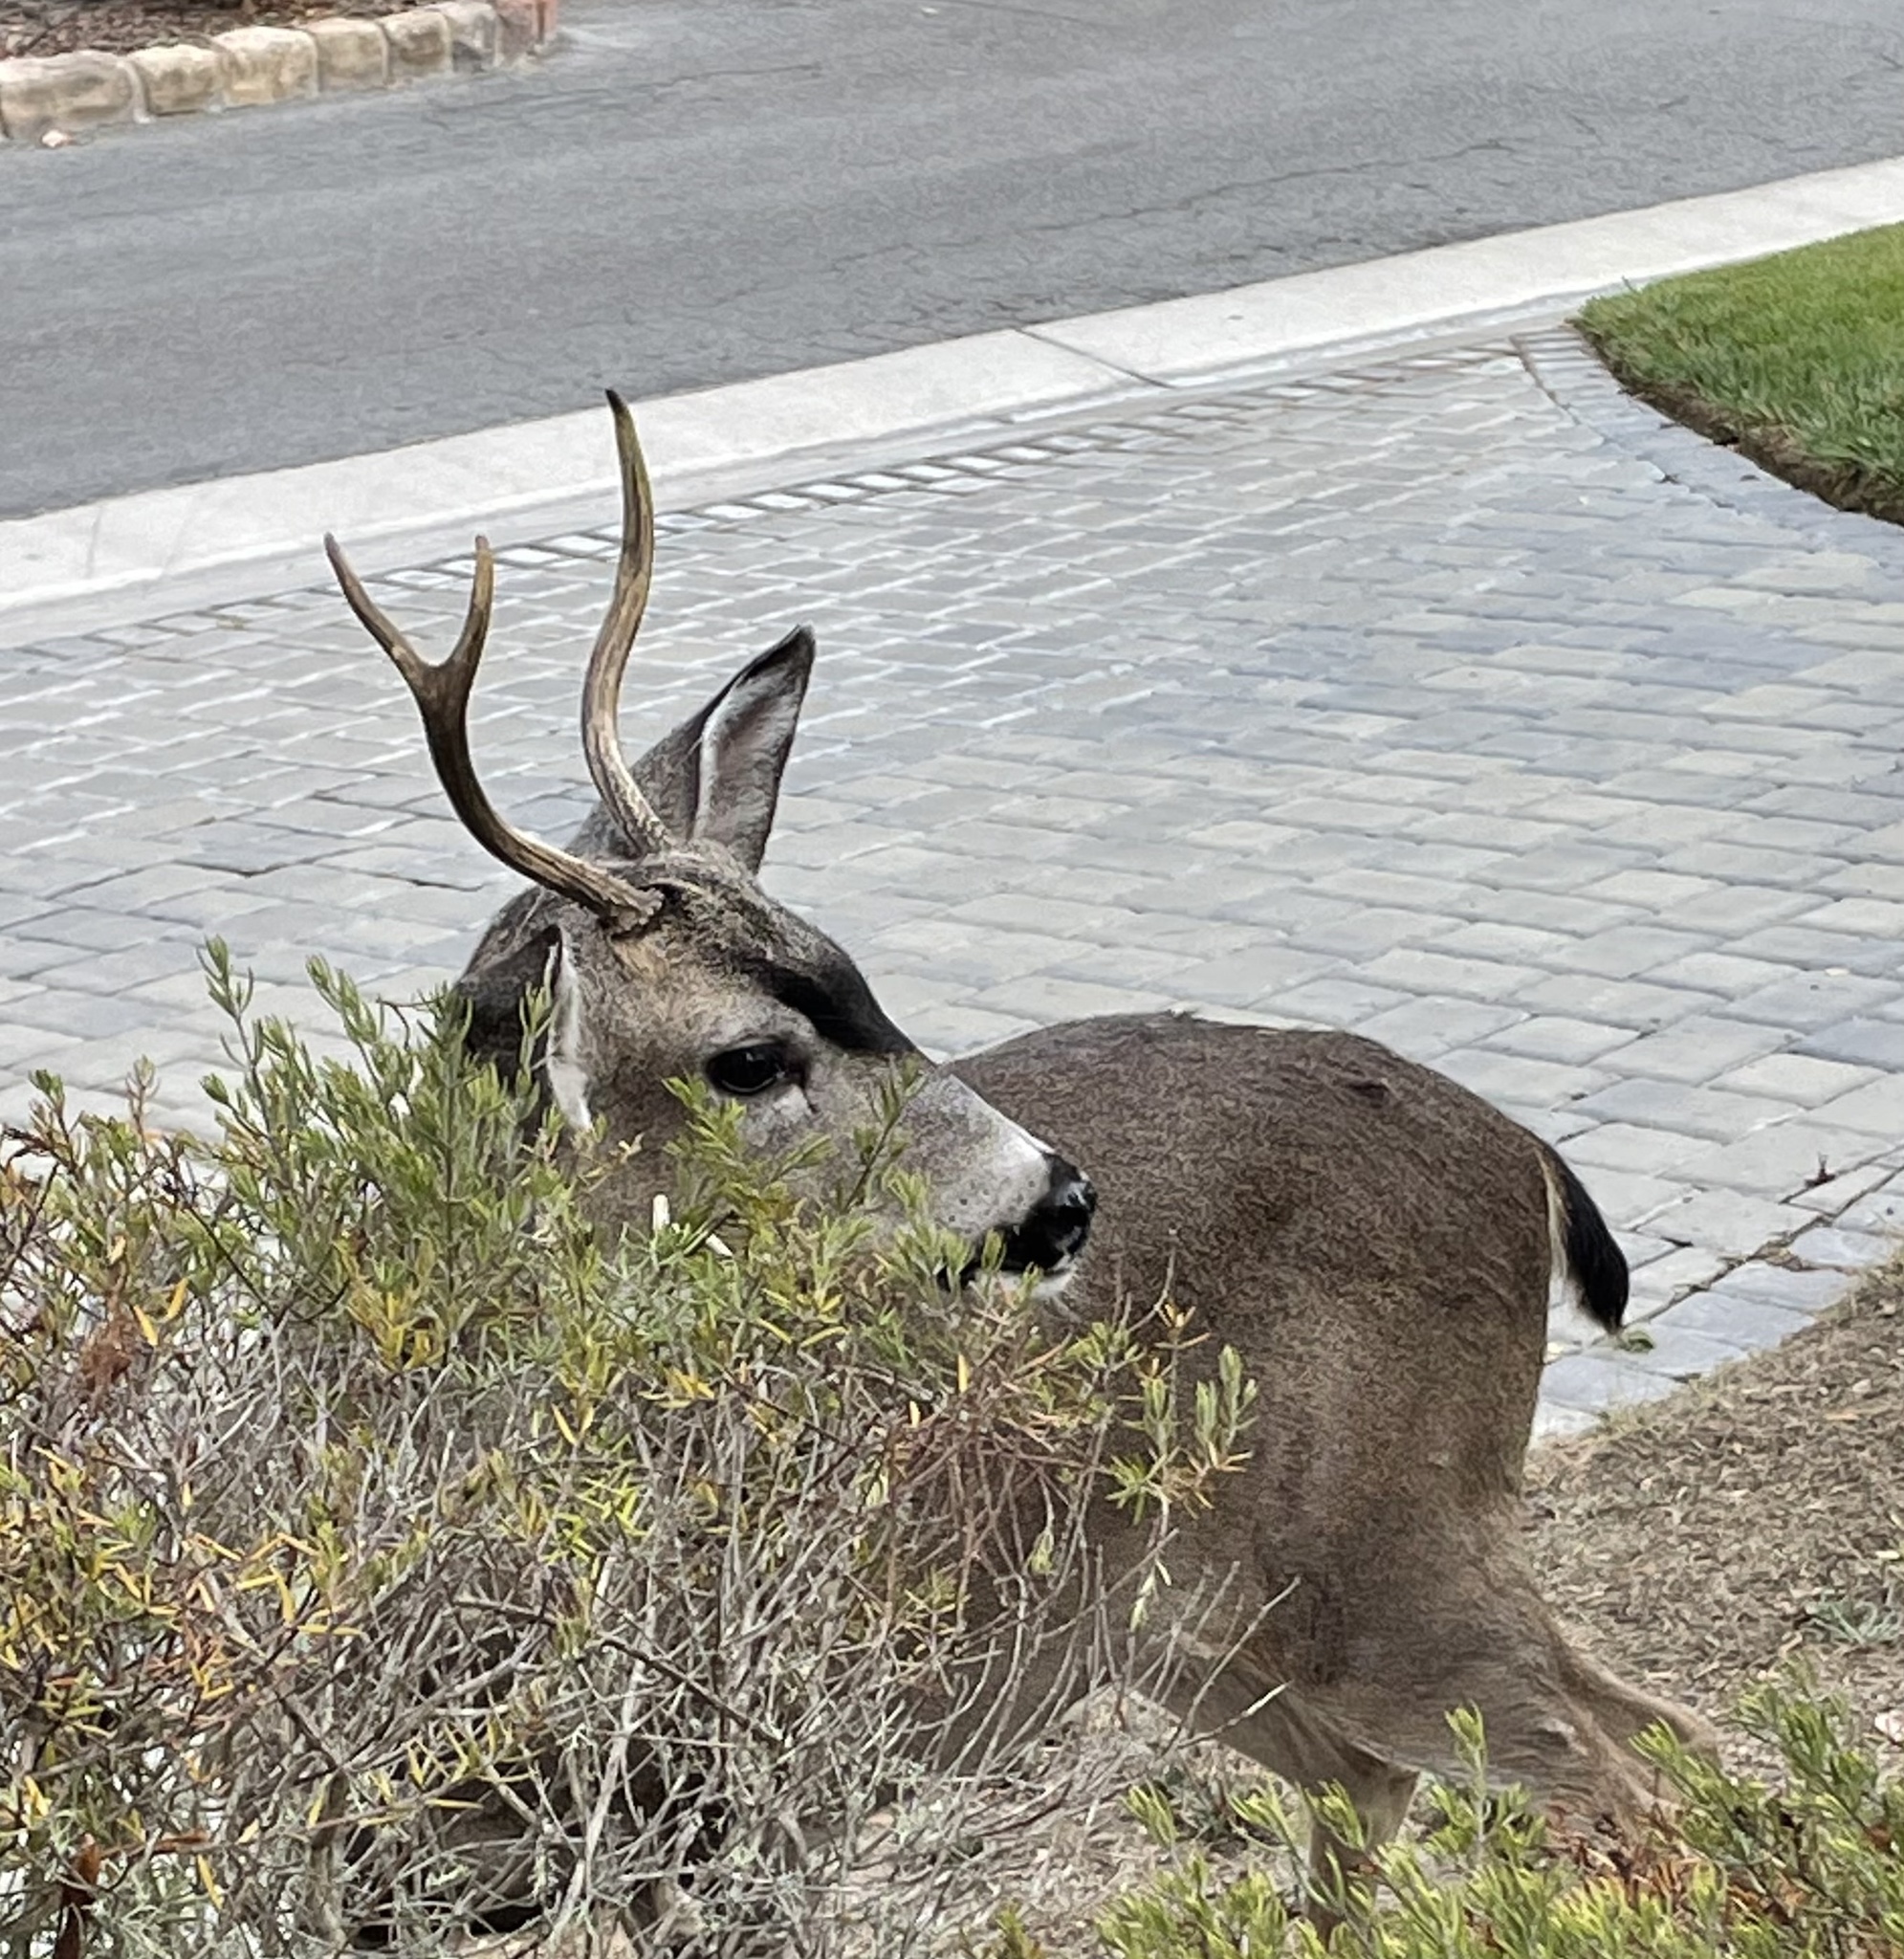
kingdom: Animalia
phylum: Chordata
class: Mammalia
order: Artiodactyla
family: Cervidae
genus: Odocoileus
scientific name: Odocoileus hemionus
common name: Mule deer
